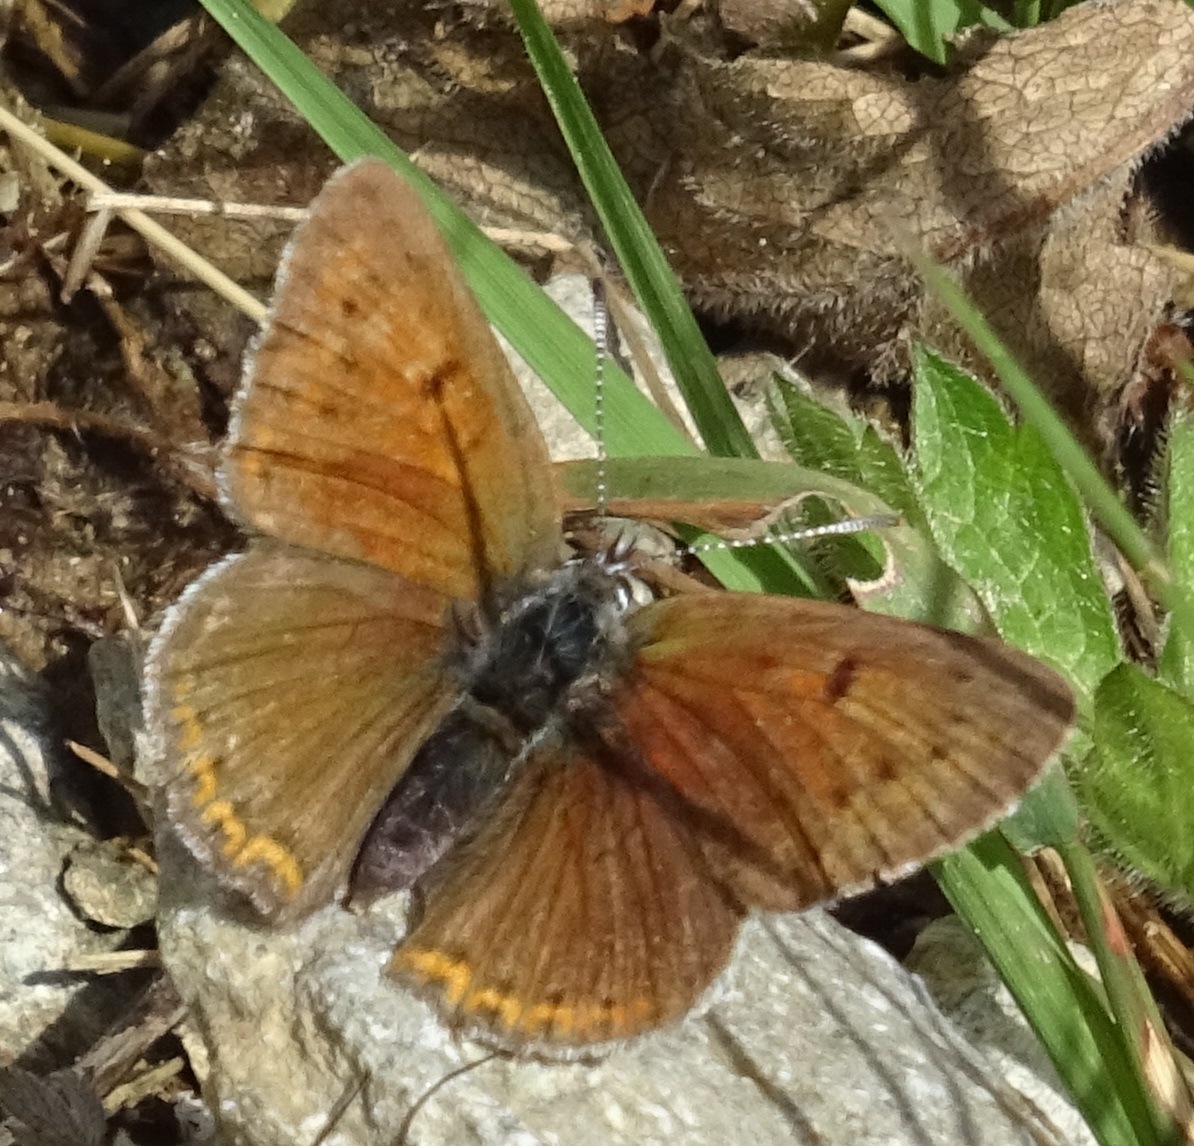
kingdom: Animalia
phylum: Arthropoda
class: Insecta
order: Lepidoptera
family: Lycaenidae
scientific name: Lycaenidae
